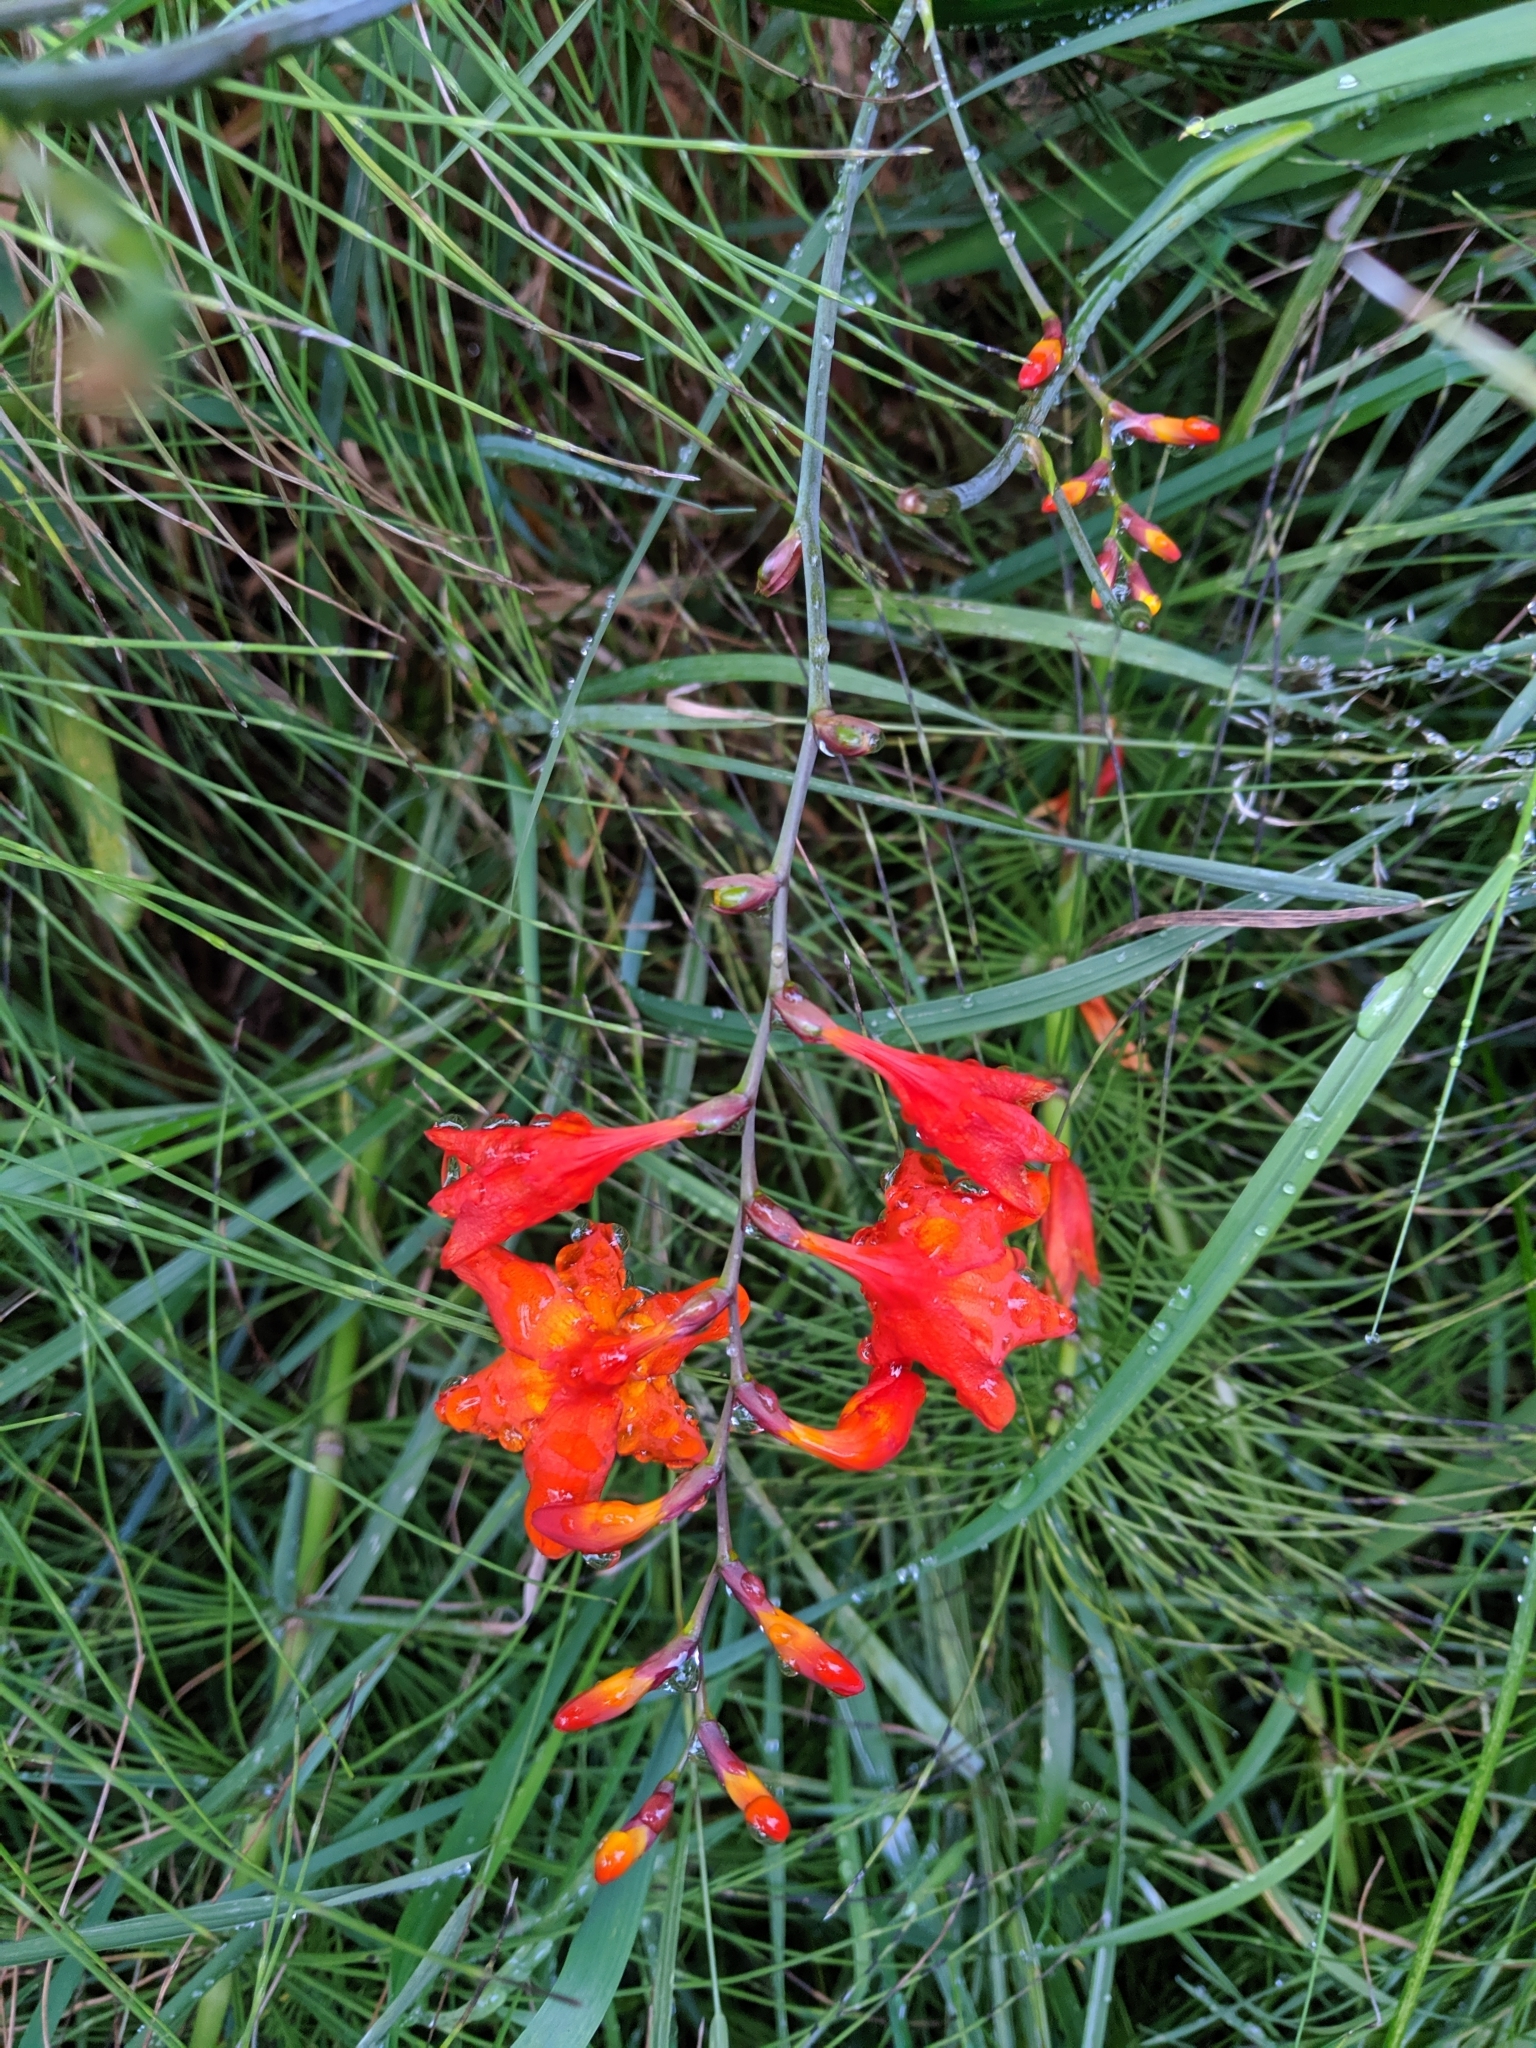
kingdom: Plantae
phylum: Tracheophyta
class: Liliopsida
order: Asparagales
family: Iridaceae
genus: Crocosmia
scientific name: Crocosmia crocosmiiflora
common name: Montbretia
